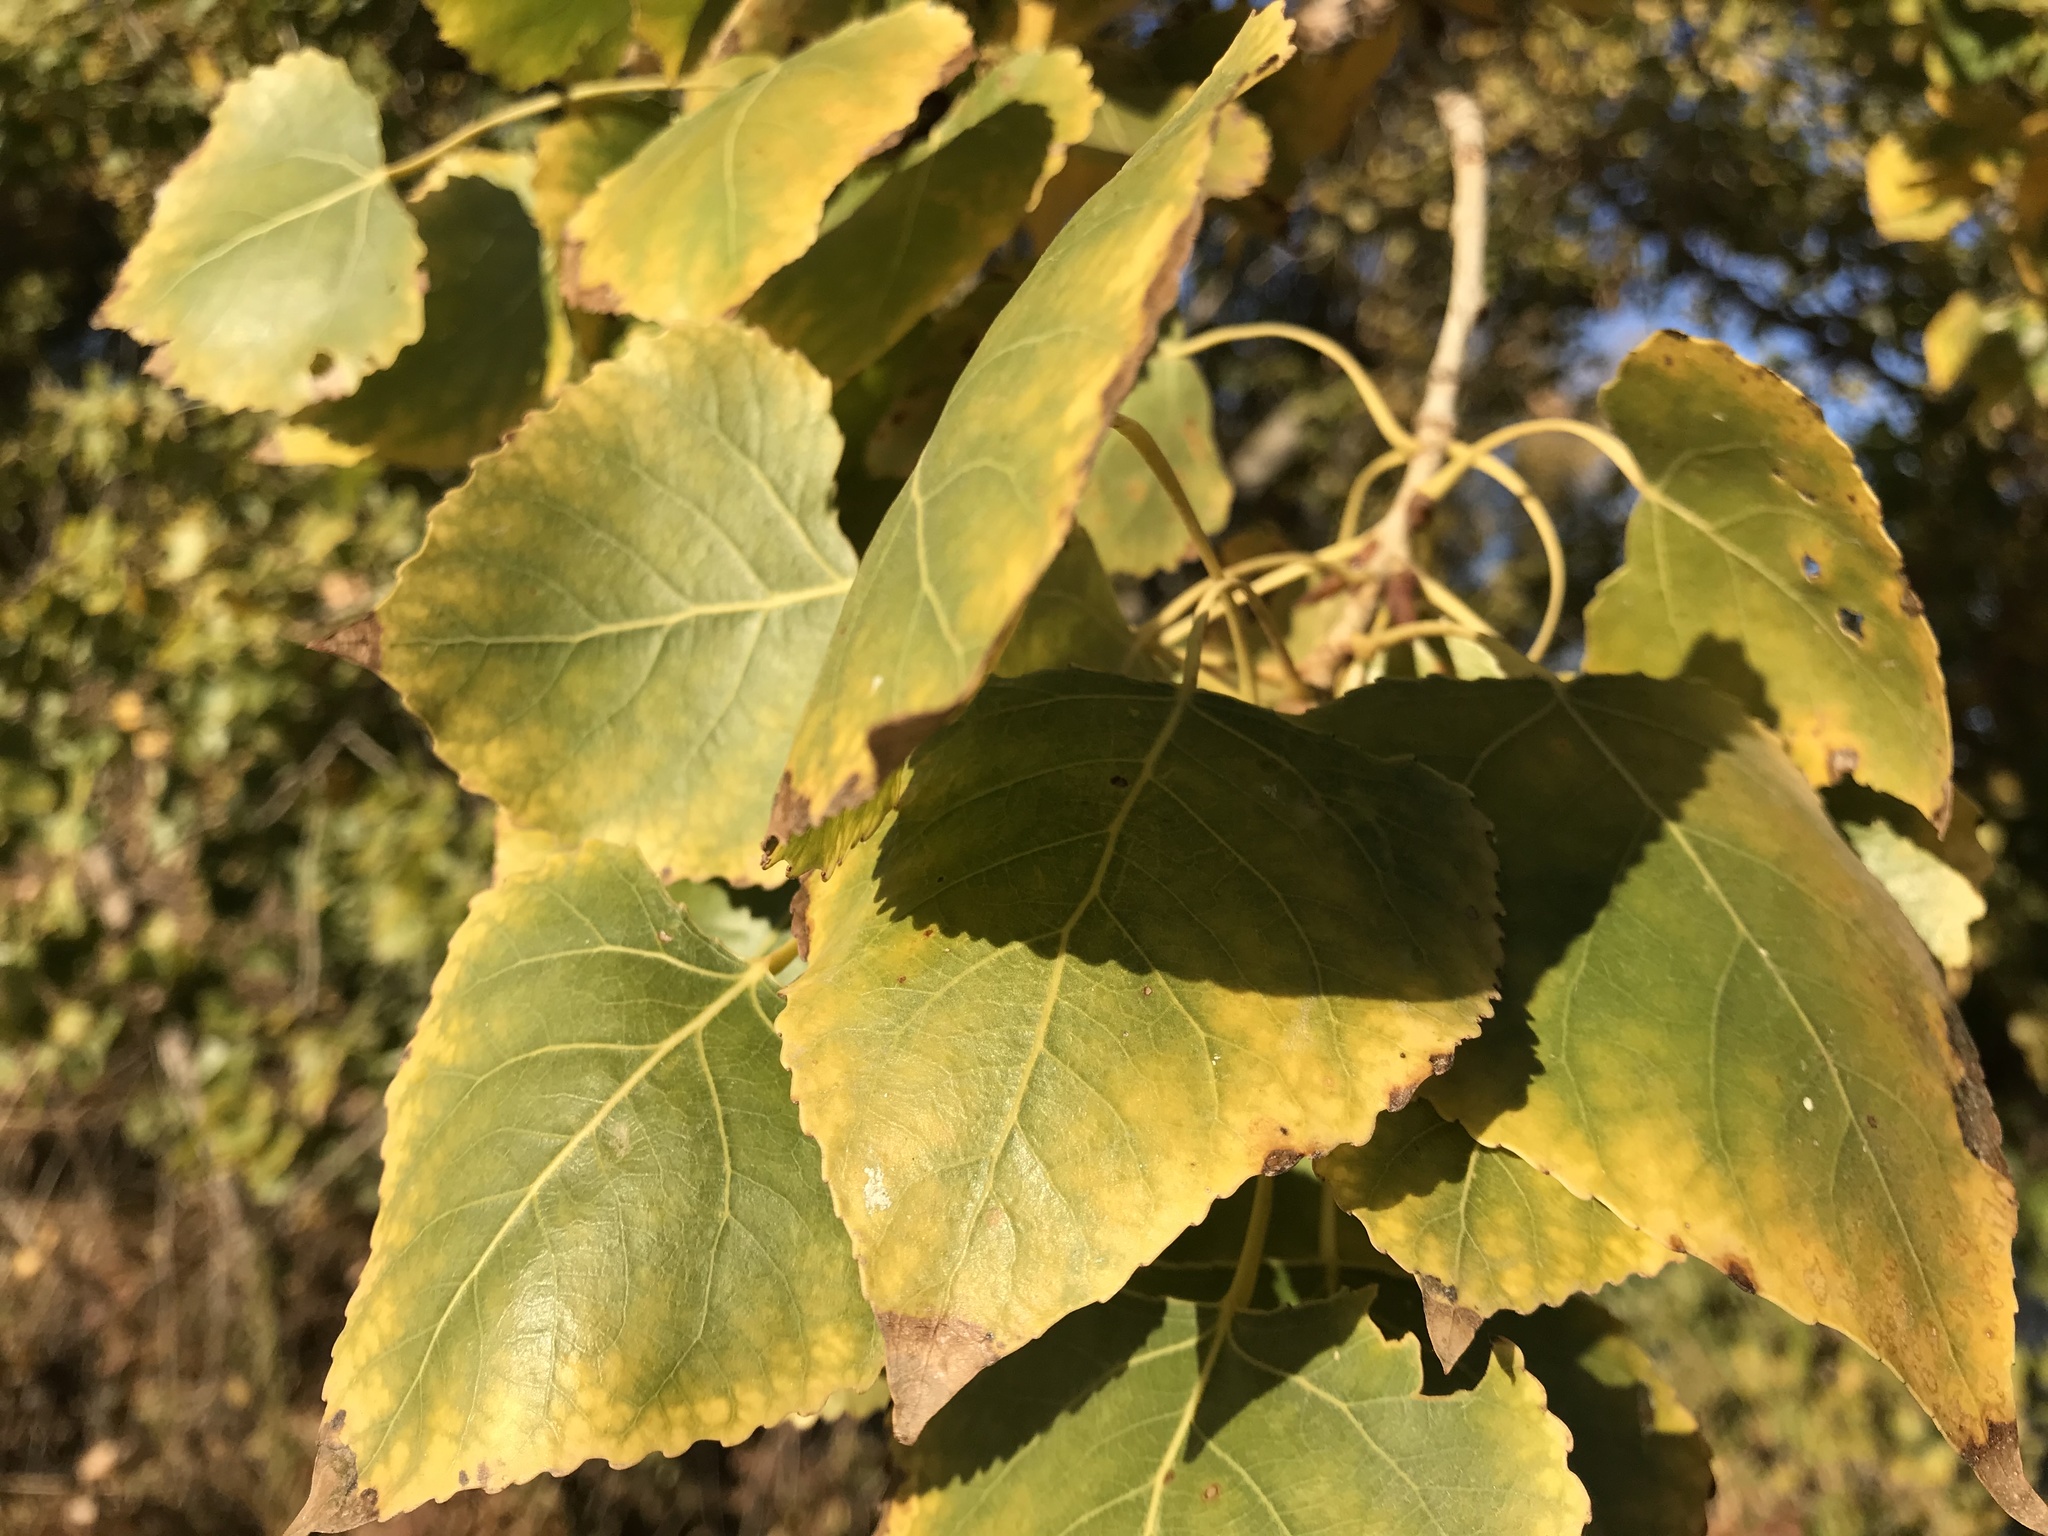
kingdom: Plantae
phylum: Tracheophyta
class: Magnoliopsida
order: Malpighiales
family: Salicaceae
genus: Populus
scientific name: Populus fremontii
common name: Fremont's cottonwood
